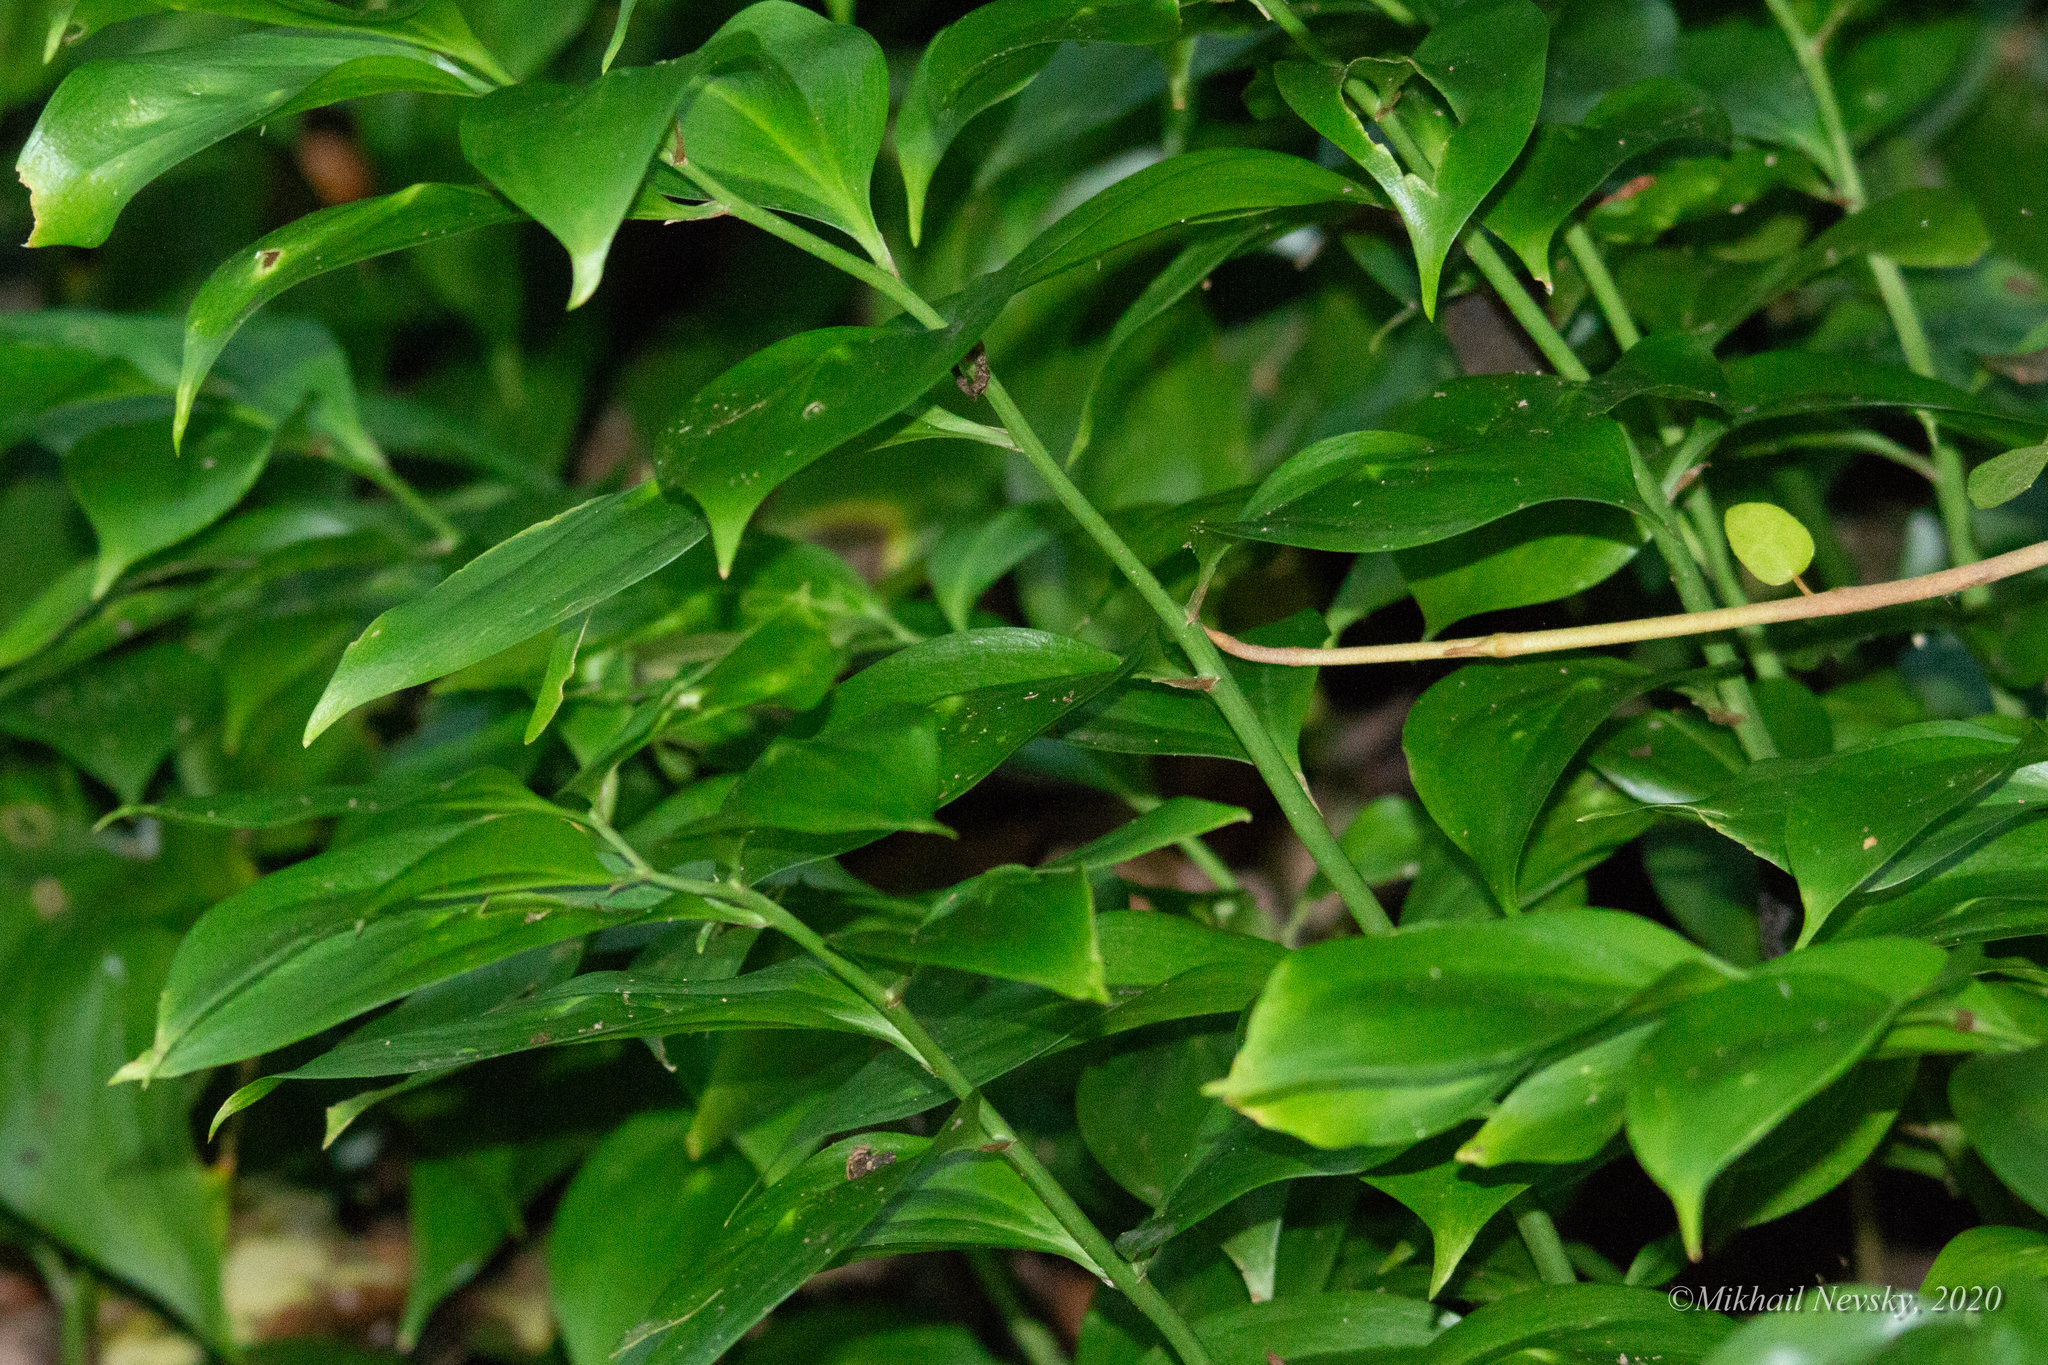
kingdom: Plantae
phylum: Tracheophyta
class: Liliopsida
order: Asparagales
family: Asparagaceae
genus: Ruscus
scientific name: Ruscus colchicus
